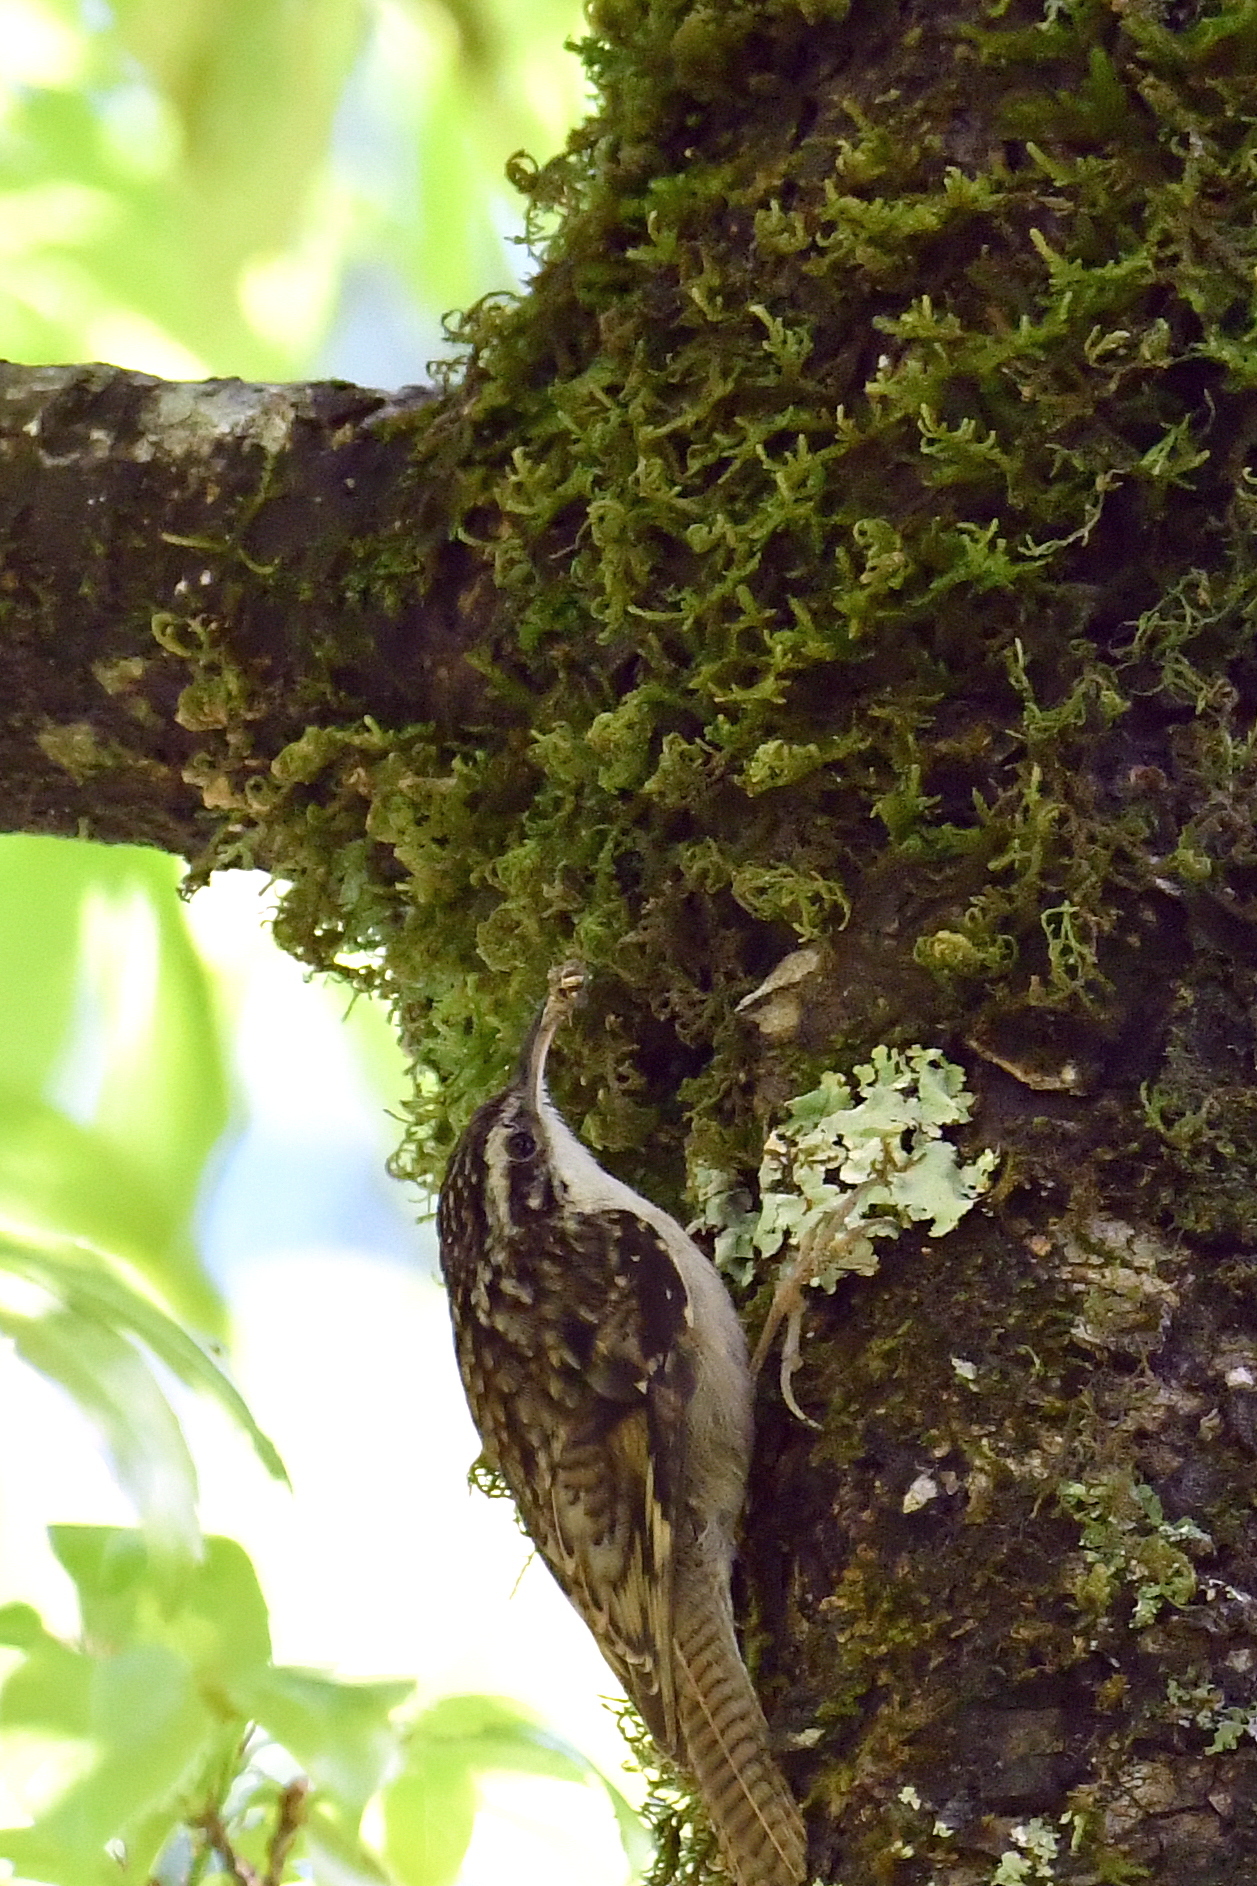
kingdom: Animalia
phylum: Chordata
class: Aves
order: Passeriformes
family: Certhiidae
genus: Certhia
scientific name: Certhia himalayana
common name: Bar-tailed treecreeper
